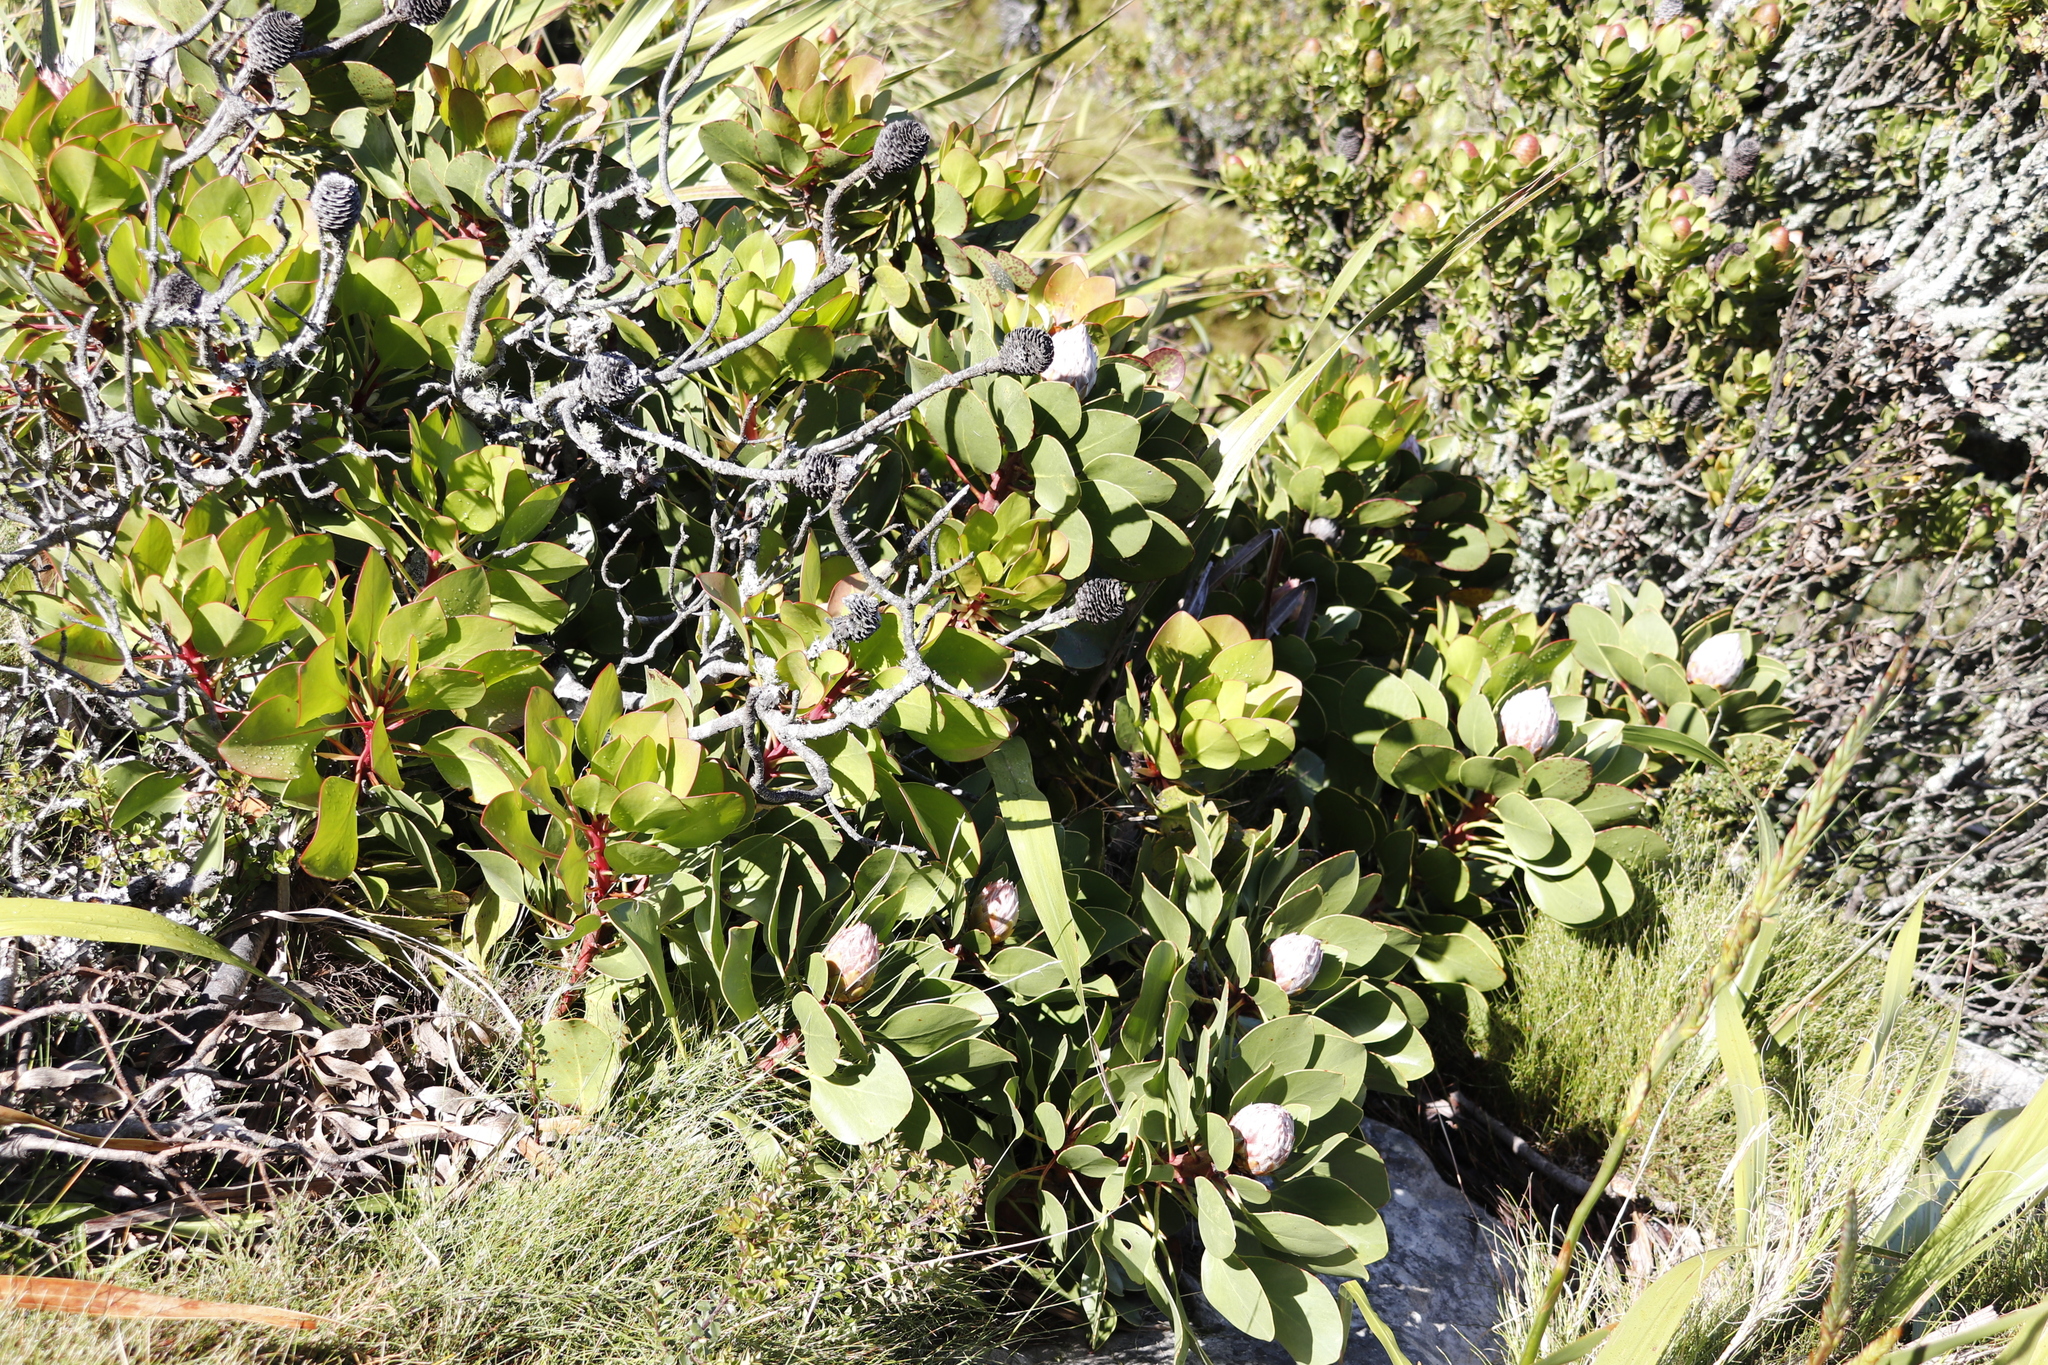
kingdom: Plantae
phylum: Tracheophyta
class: Magnoliopsida
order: Proteales
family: Proteaceae
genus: Protea
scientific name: Protea cynaroides
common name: King protea
